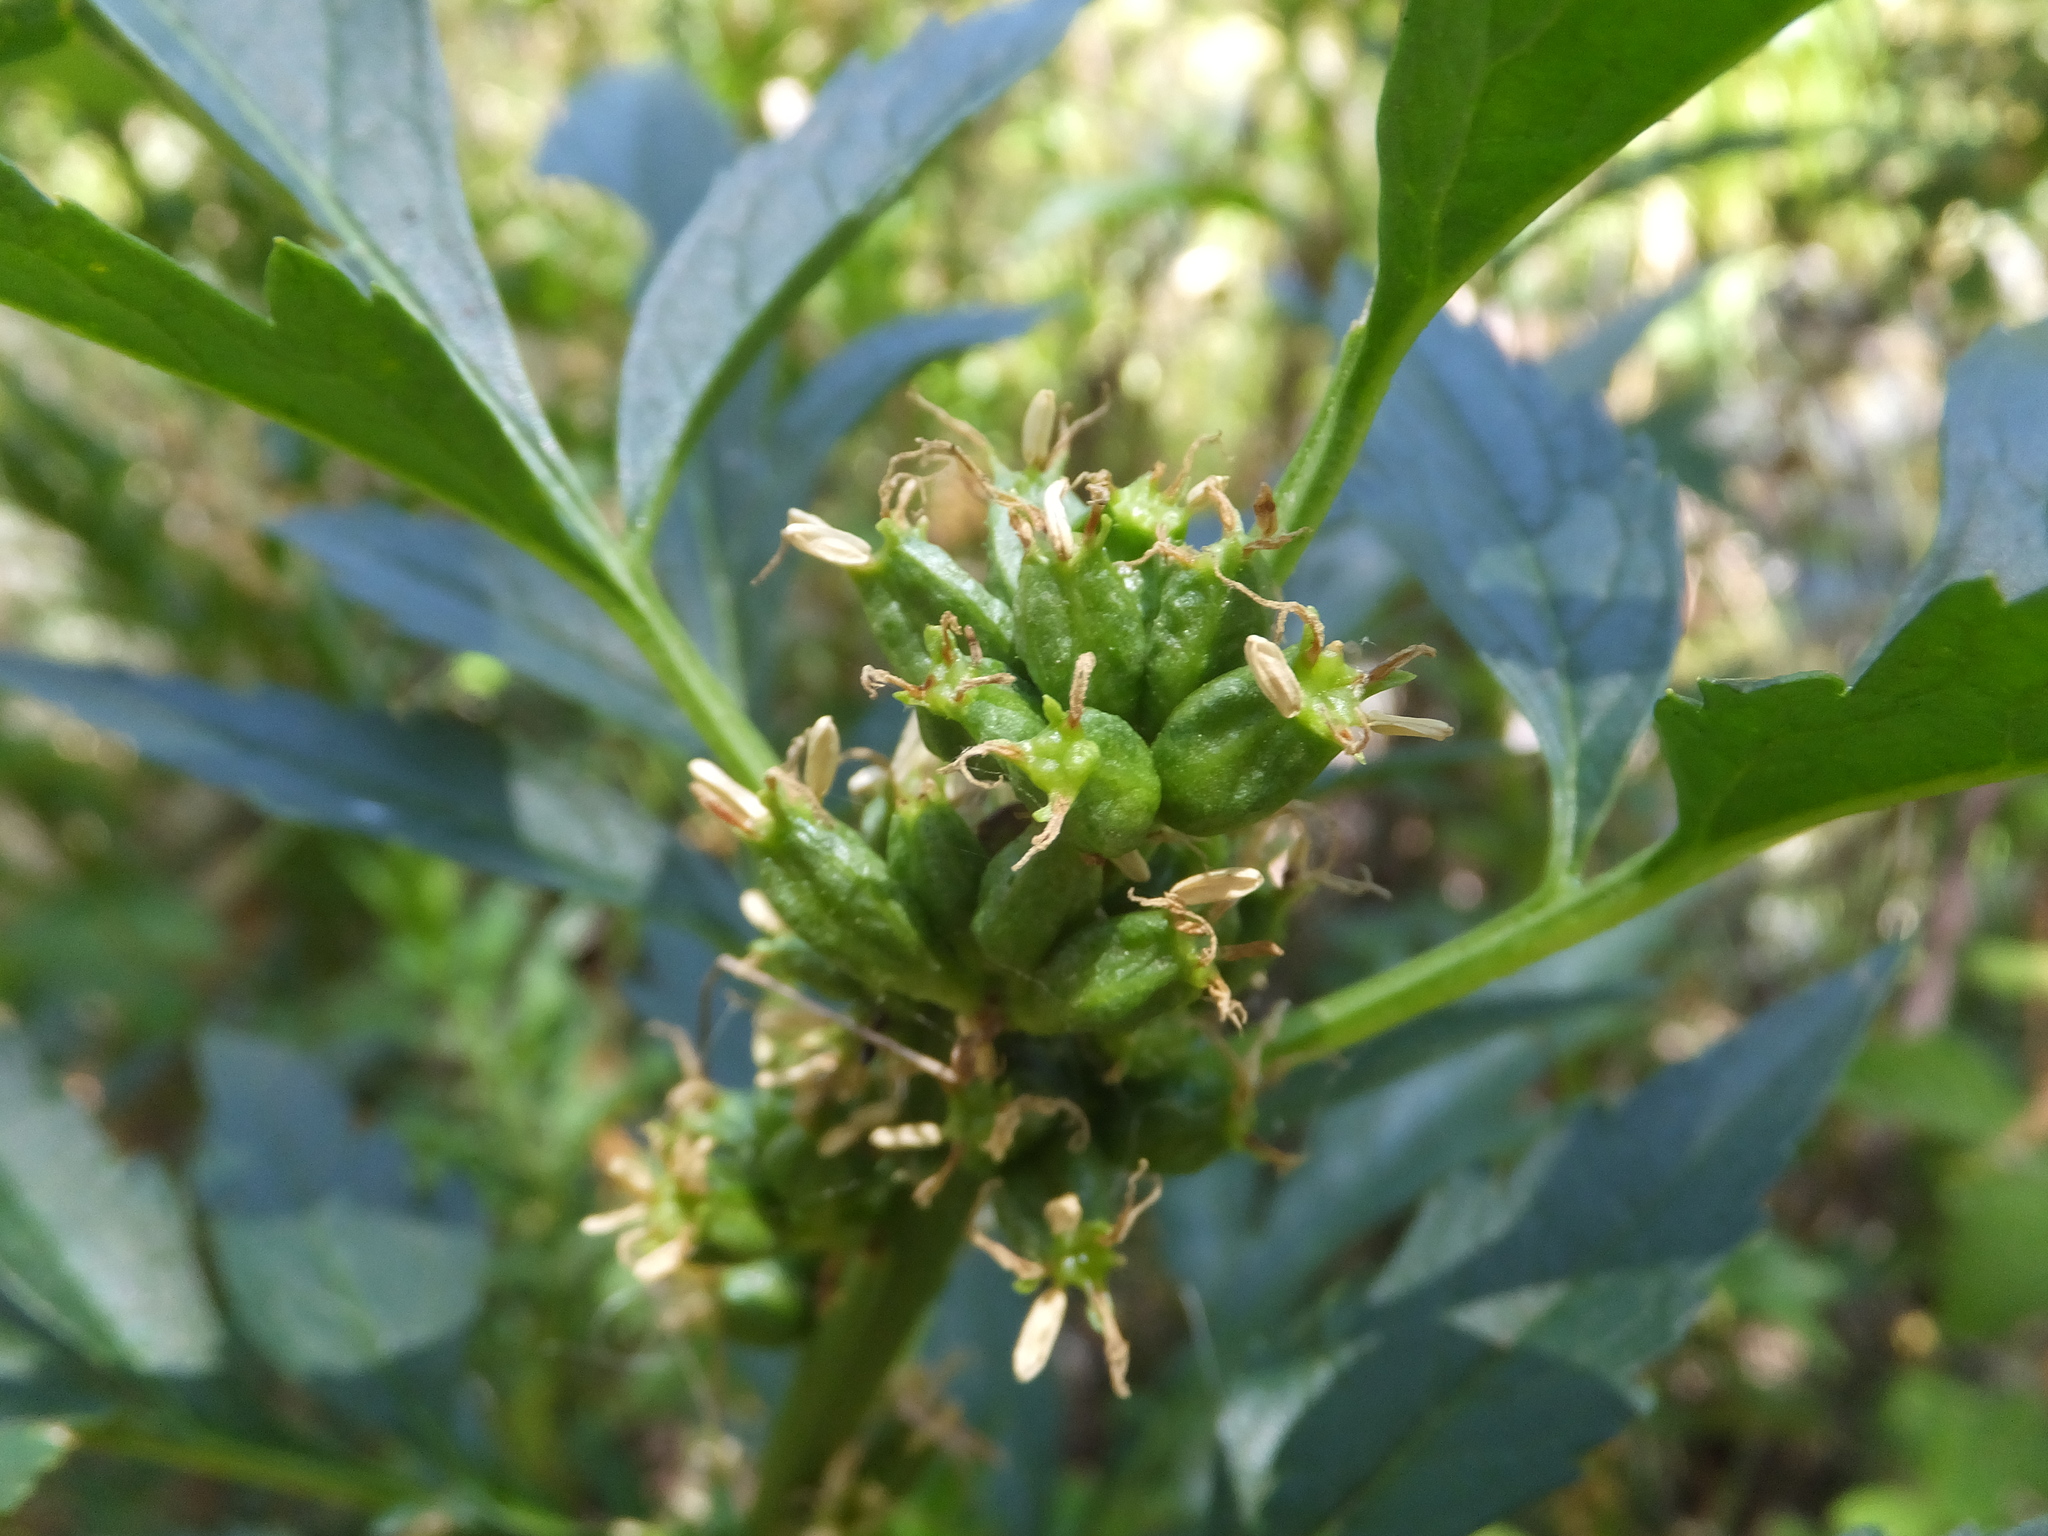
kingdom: Plantae
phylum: Tracheophyta
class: Magnoliopsida
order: Cucurbitales
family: Datiscaceae
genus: Datisca
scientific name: Datisca glomerata
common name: Durango-root
